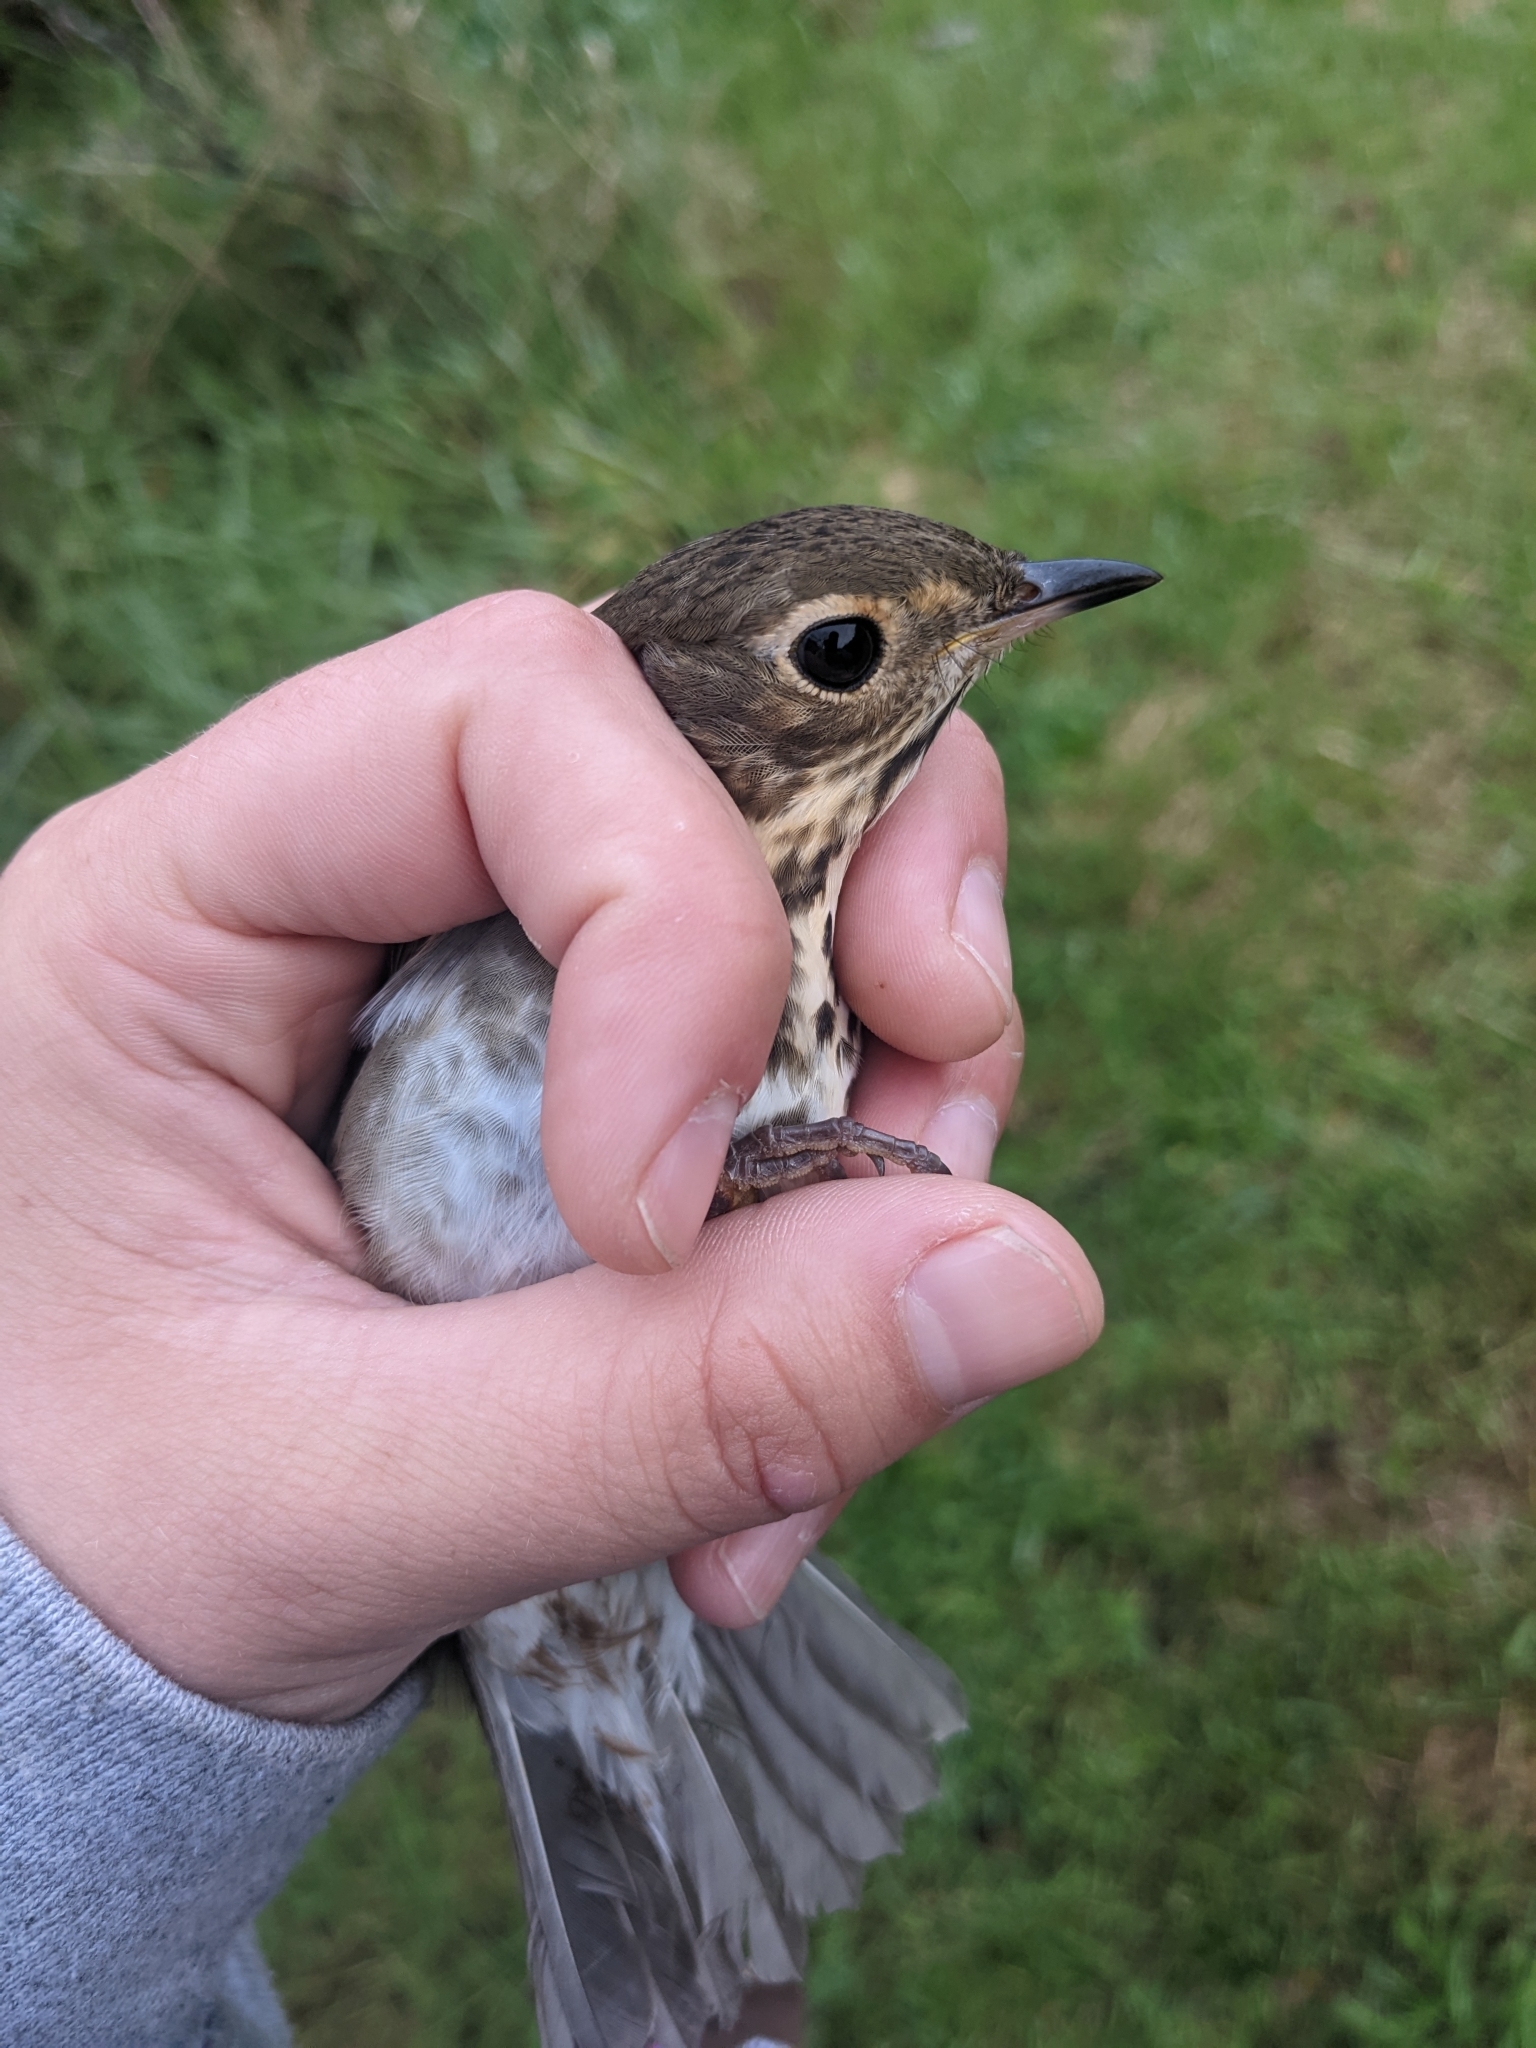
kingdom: Animalia
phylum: Chordata
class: Aves
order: Passeriformes
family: Turdidae
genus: Catharus
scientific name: Catharus ustulatus
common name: Swainson's thrush
